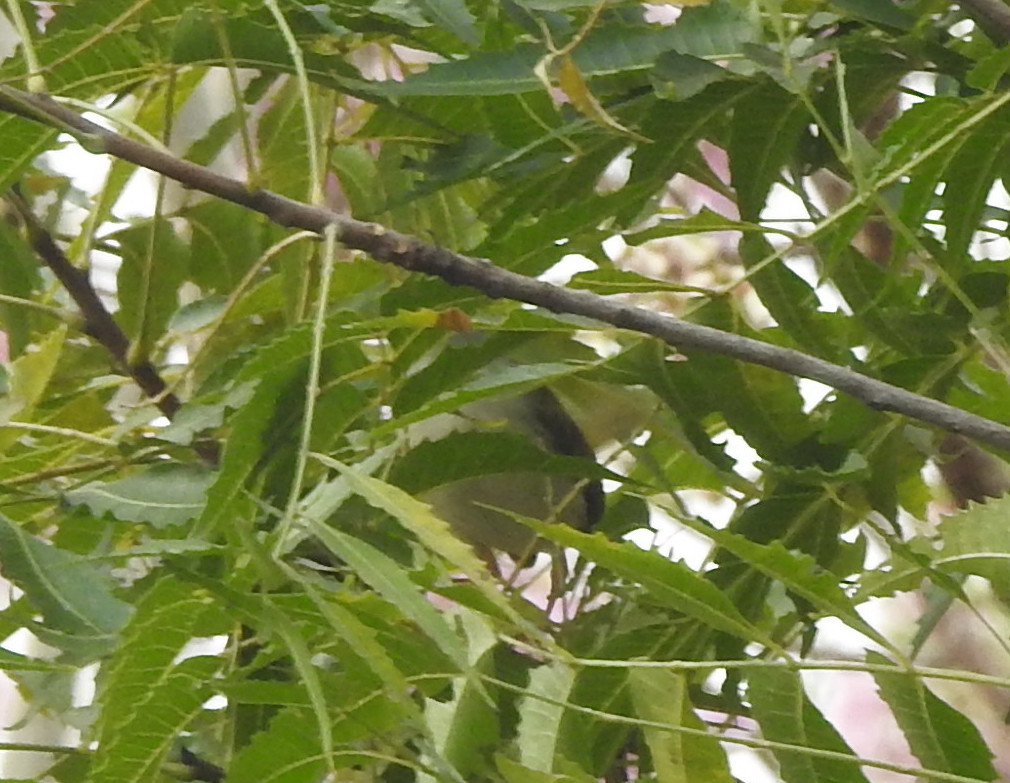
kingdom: Animalia
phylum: Chordata
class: Aves
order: Passeriformes
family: Cisticolidae
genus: Orthotomus
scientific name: Orthotomus sutorius
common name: Common tailorbird
